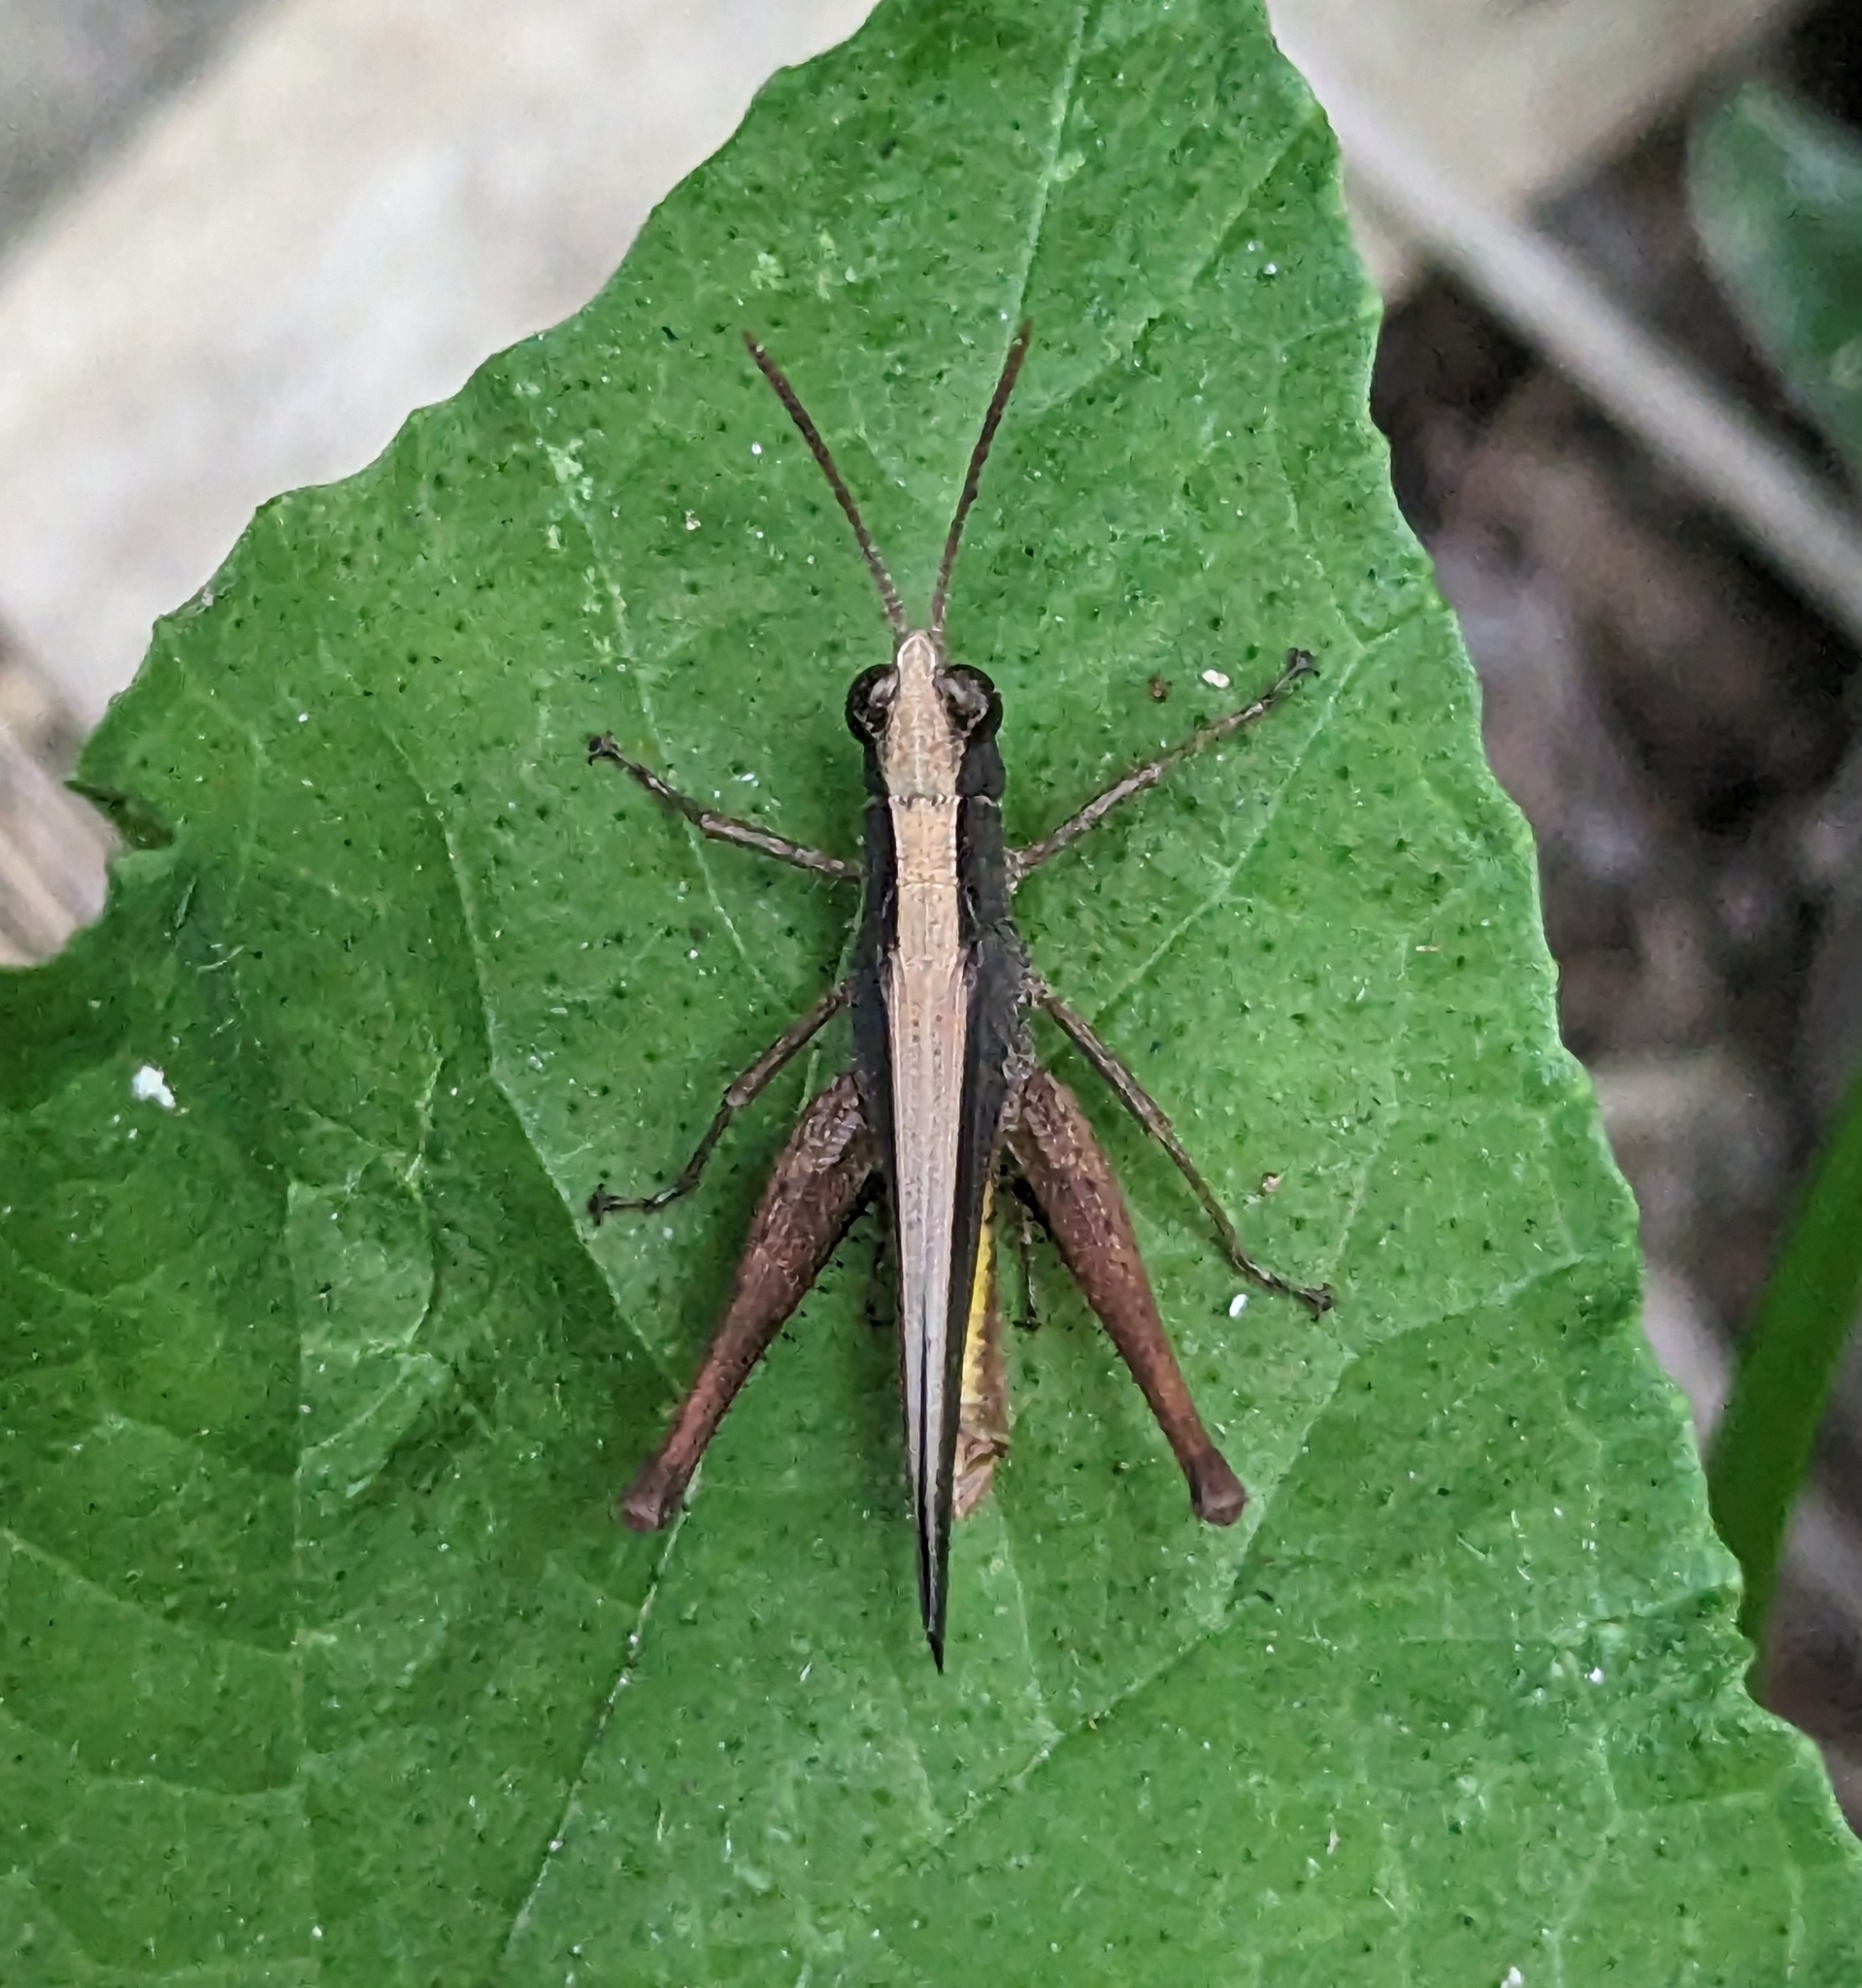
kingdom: Animalia
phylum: Arthropoda
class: Insecta
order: Orthoptera
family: Acrididae
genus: Orphula
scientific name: Orphula azteca
